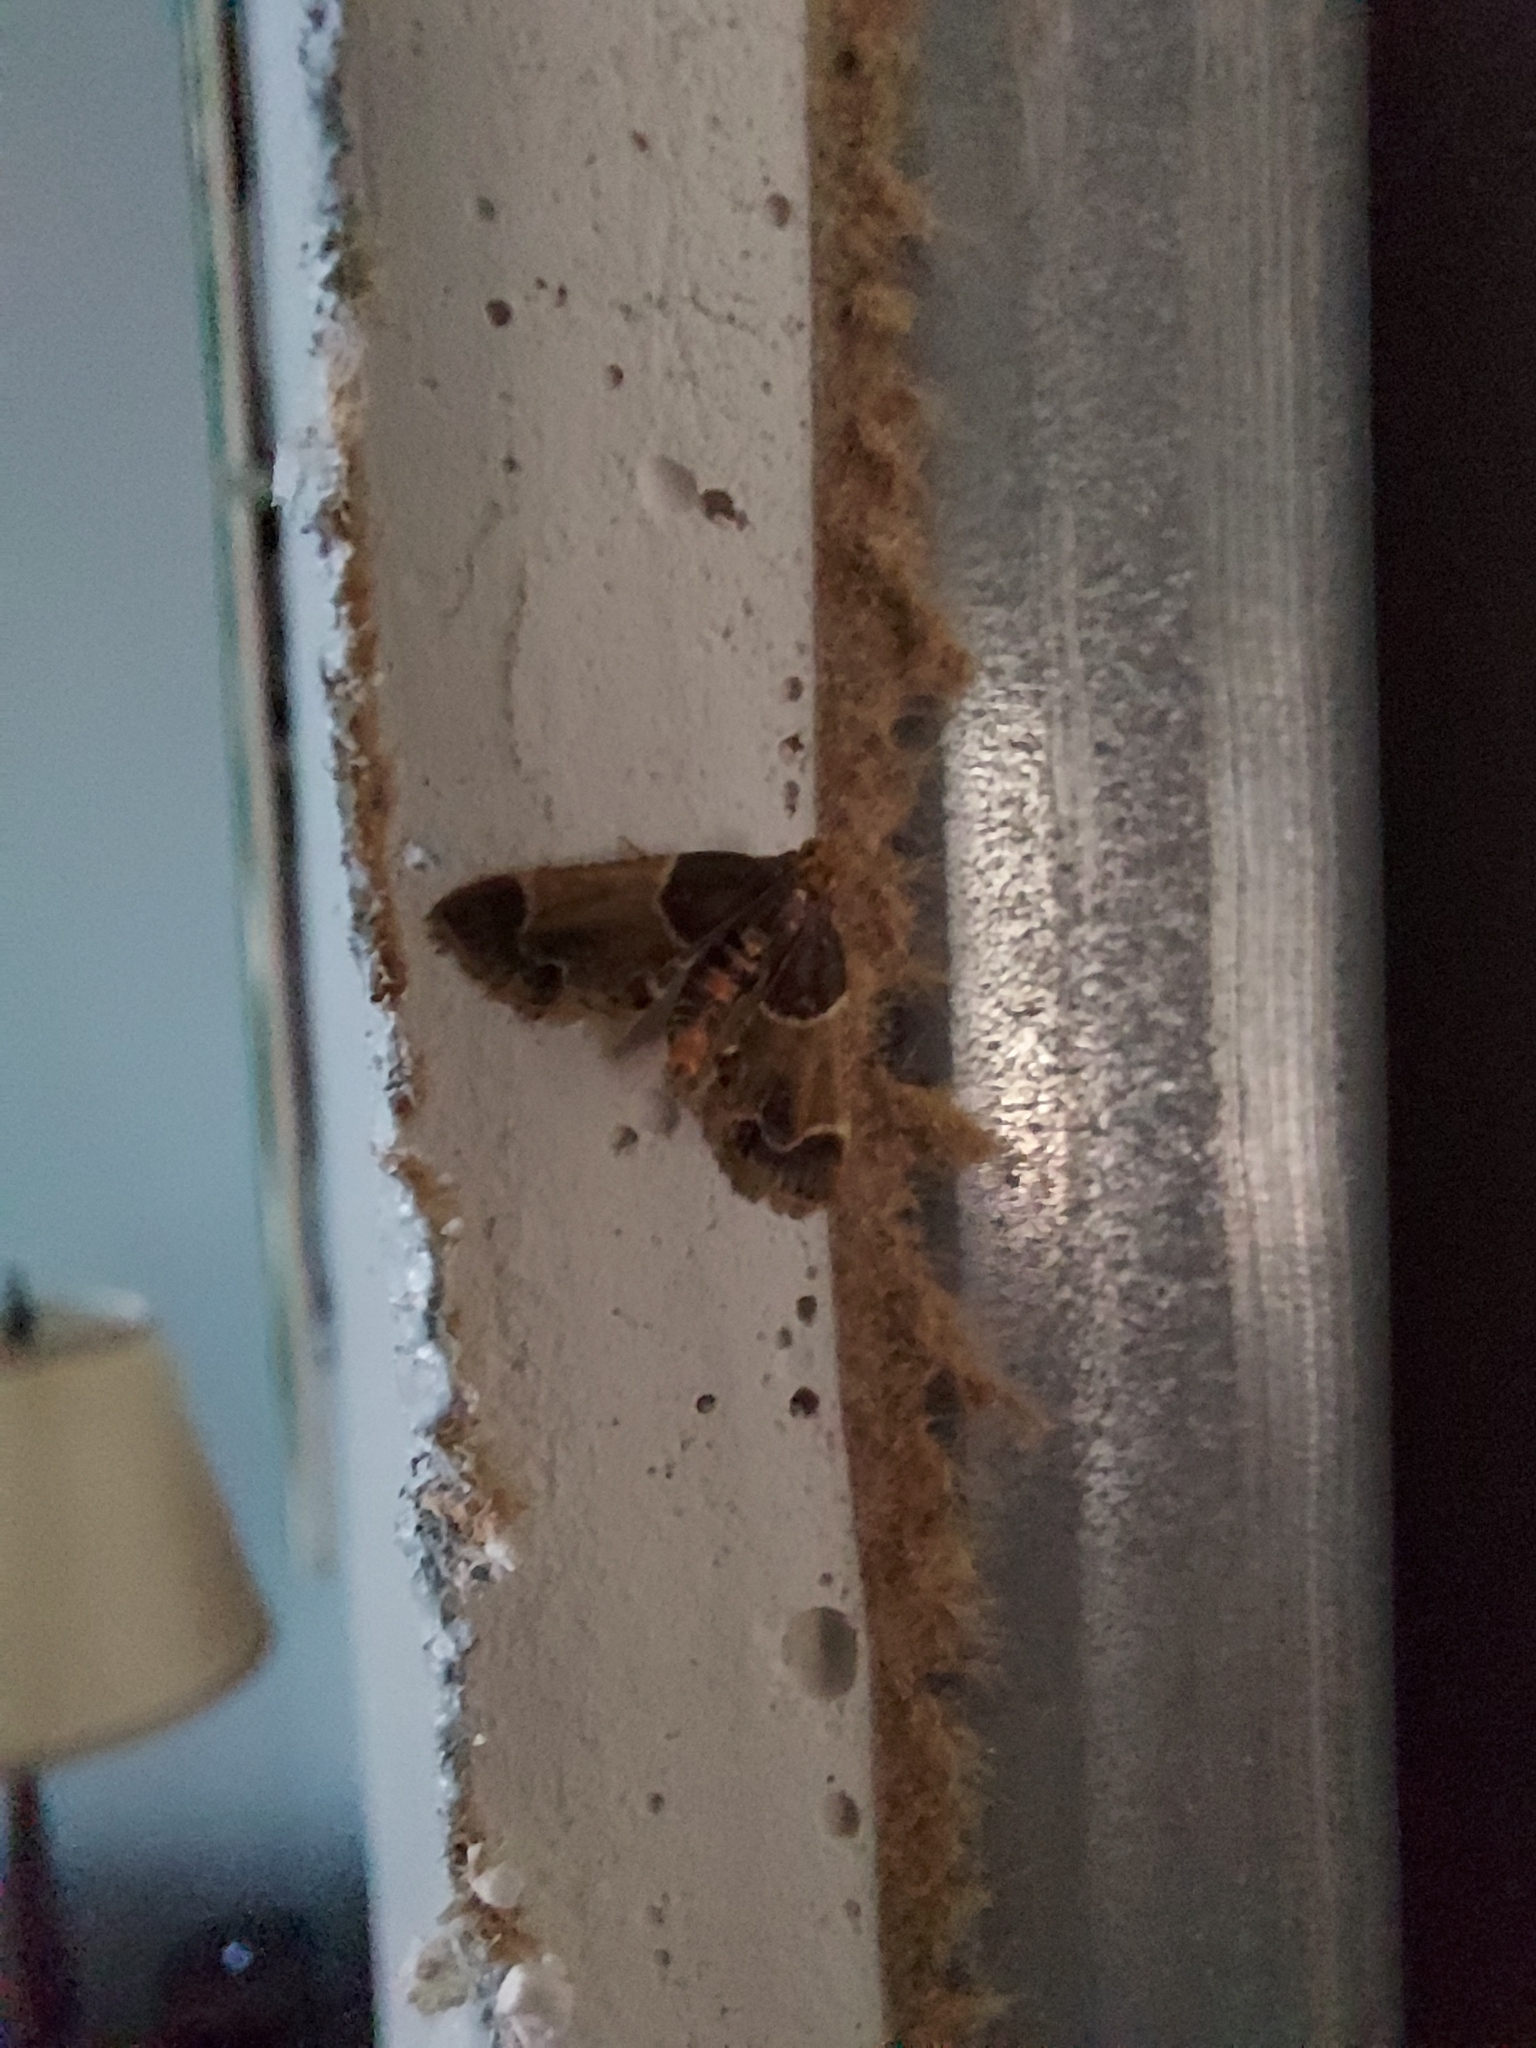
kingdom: Animalia
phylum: Arthropoda
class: Insecta
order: Lepidoptera
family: Pyralidae
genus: Pyralis
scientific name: Pyralis farinalis
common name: Meal moth
